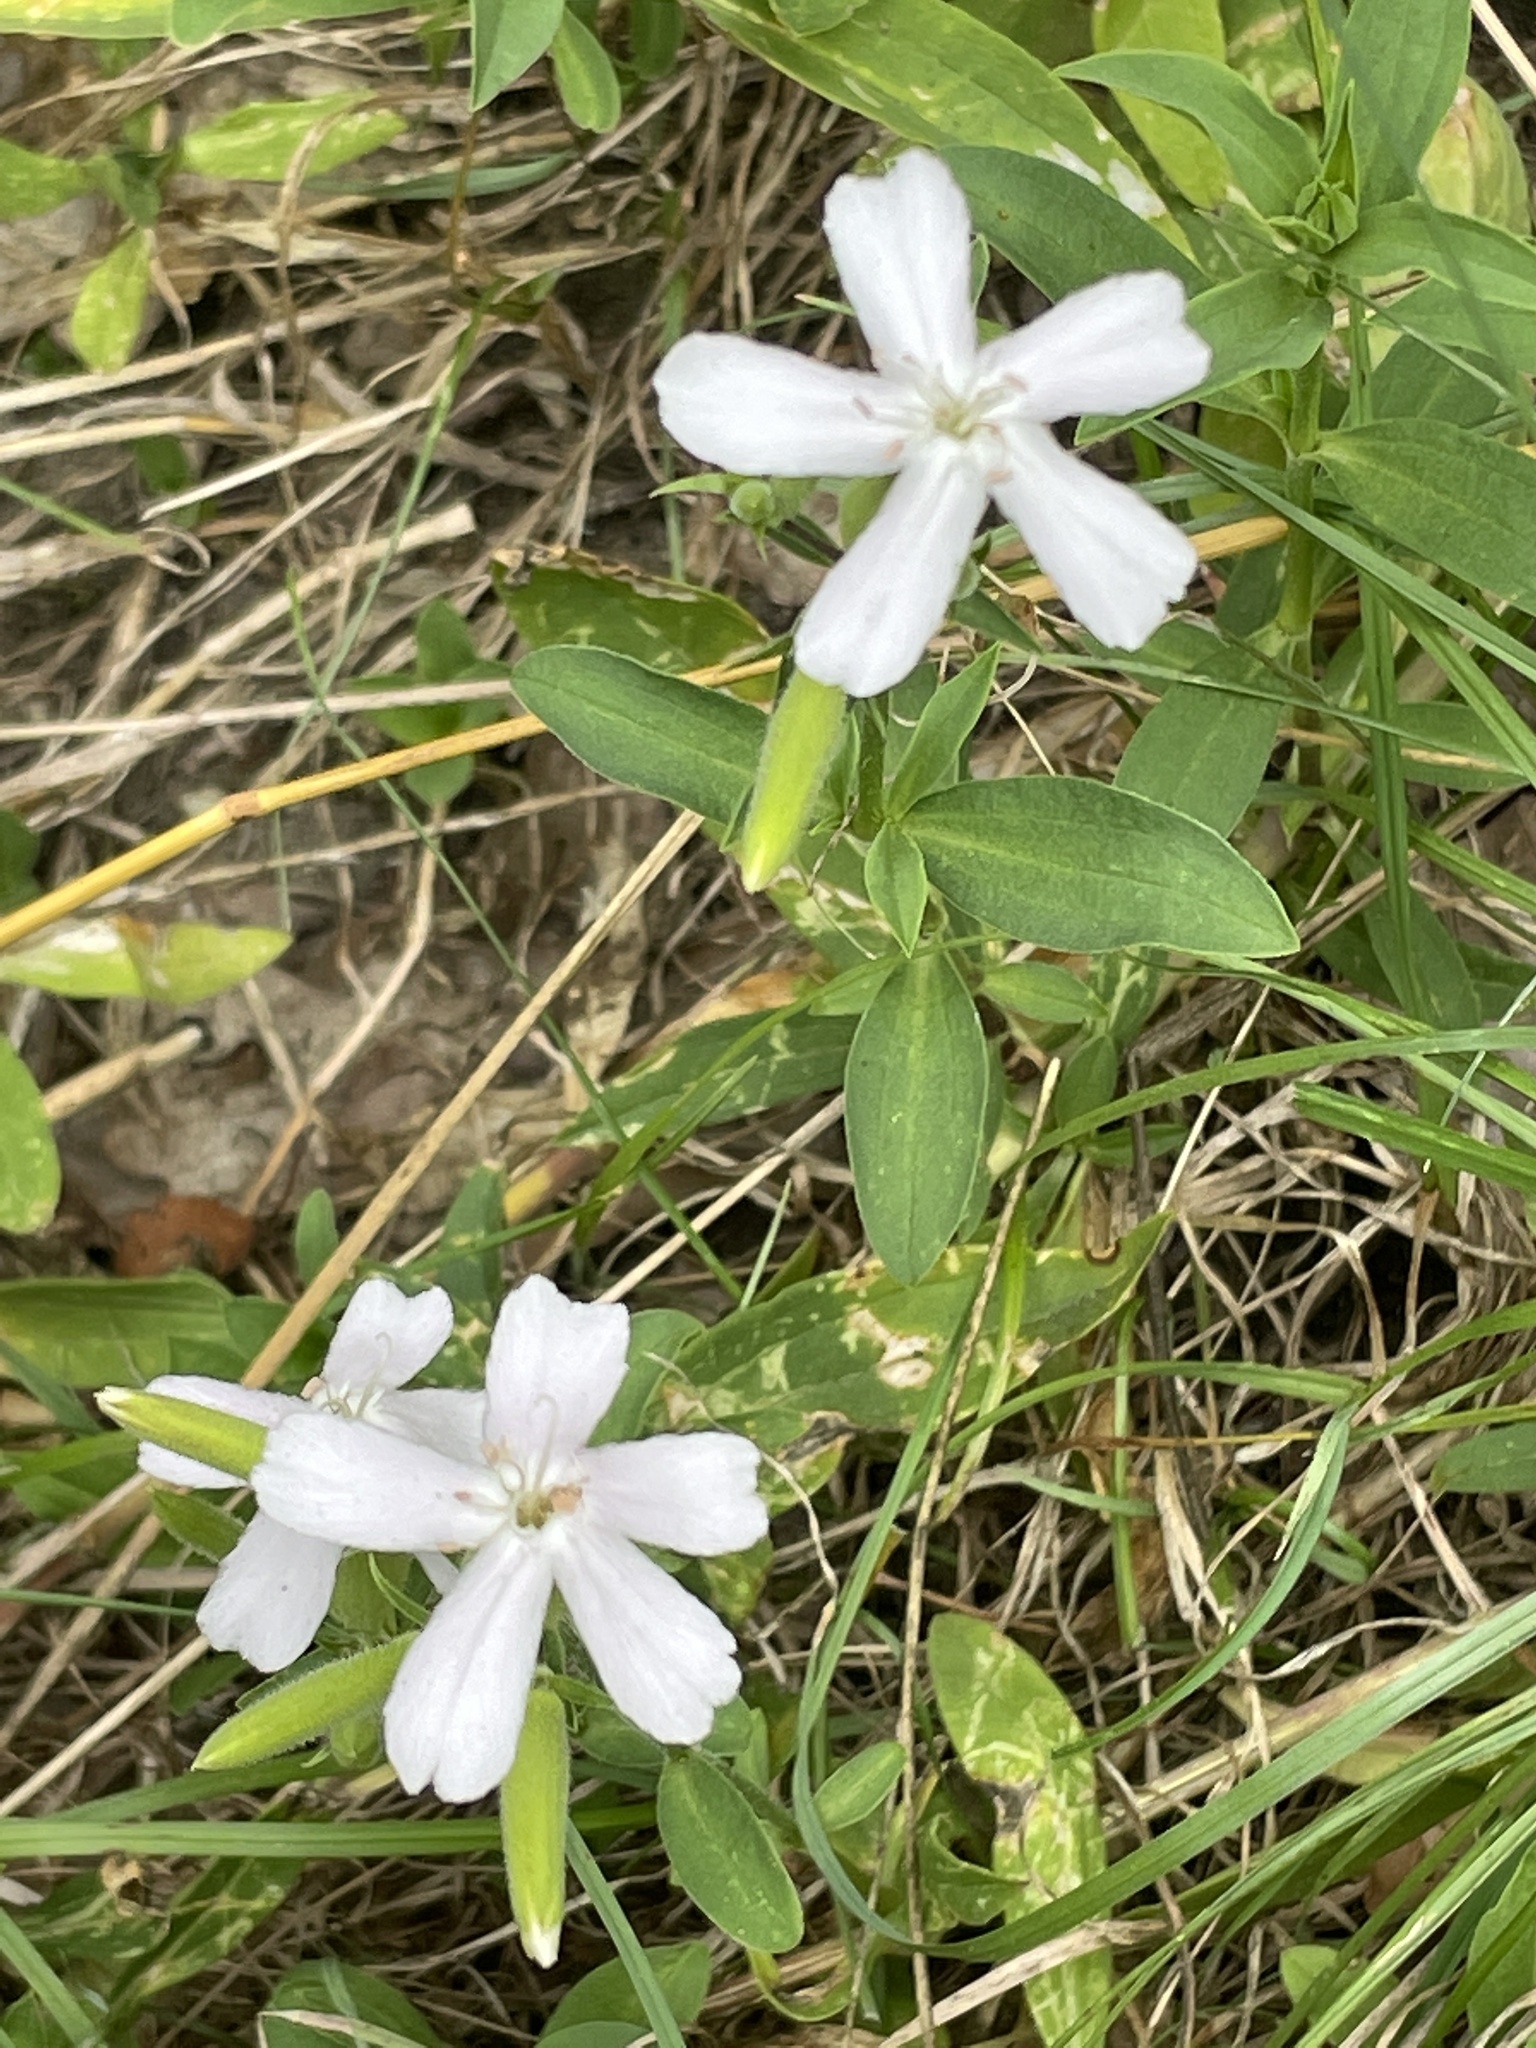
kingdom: Plantae
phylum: Tracheophyta
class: Magnoliopsida
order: Caryophyllales
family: Caryophyllaceae
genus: Saponaria
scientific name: Saponaria officinalis
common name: Soapwort
